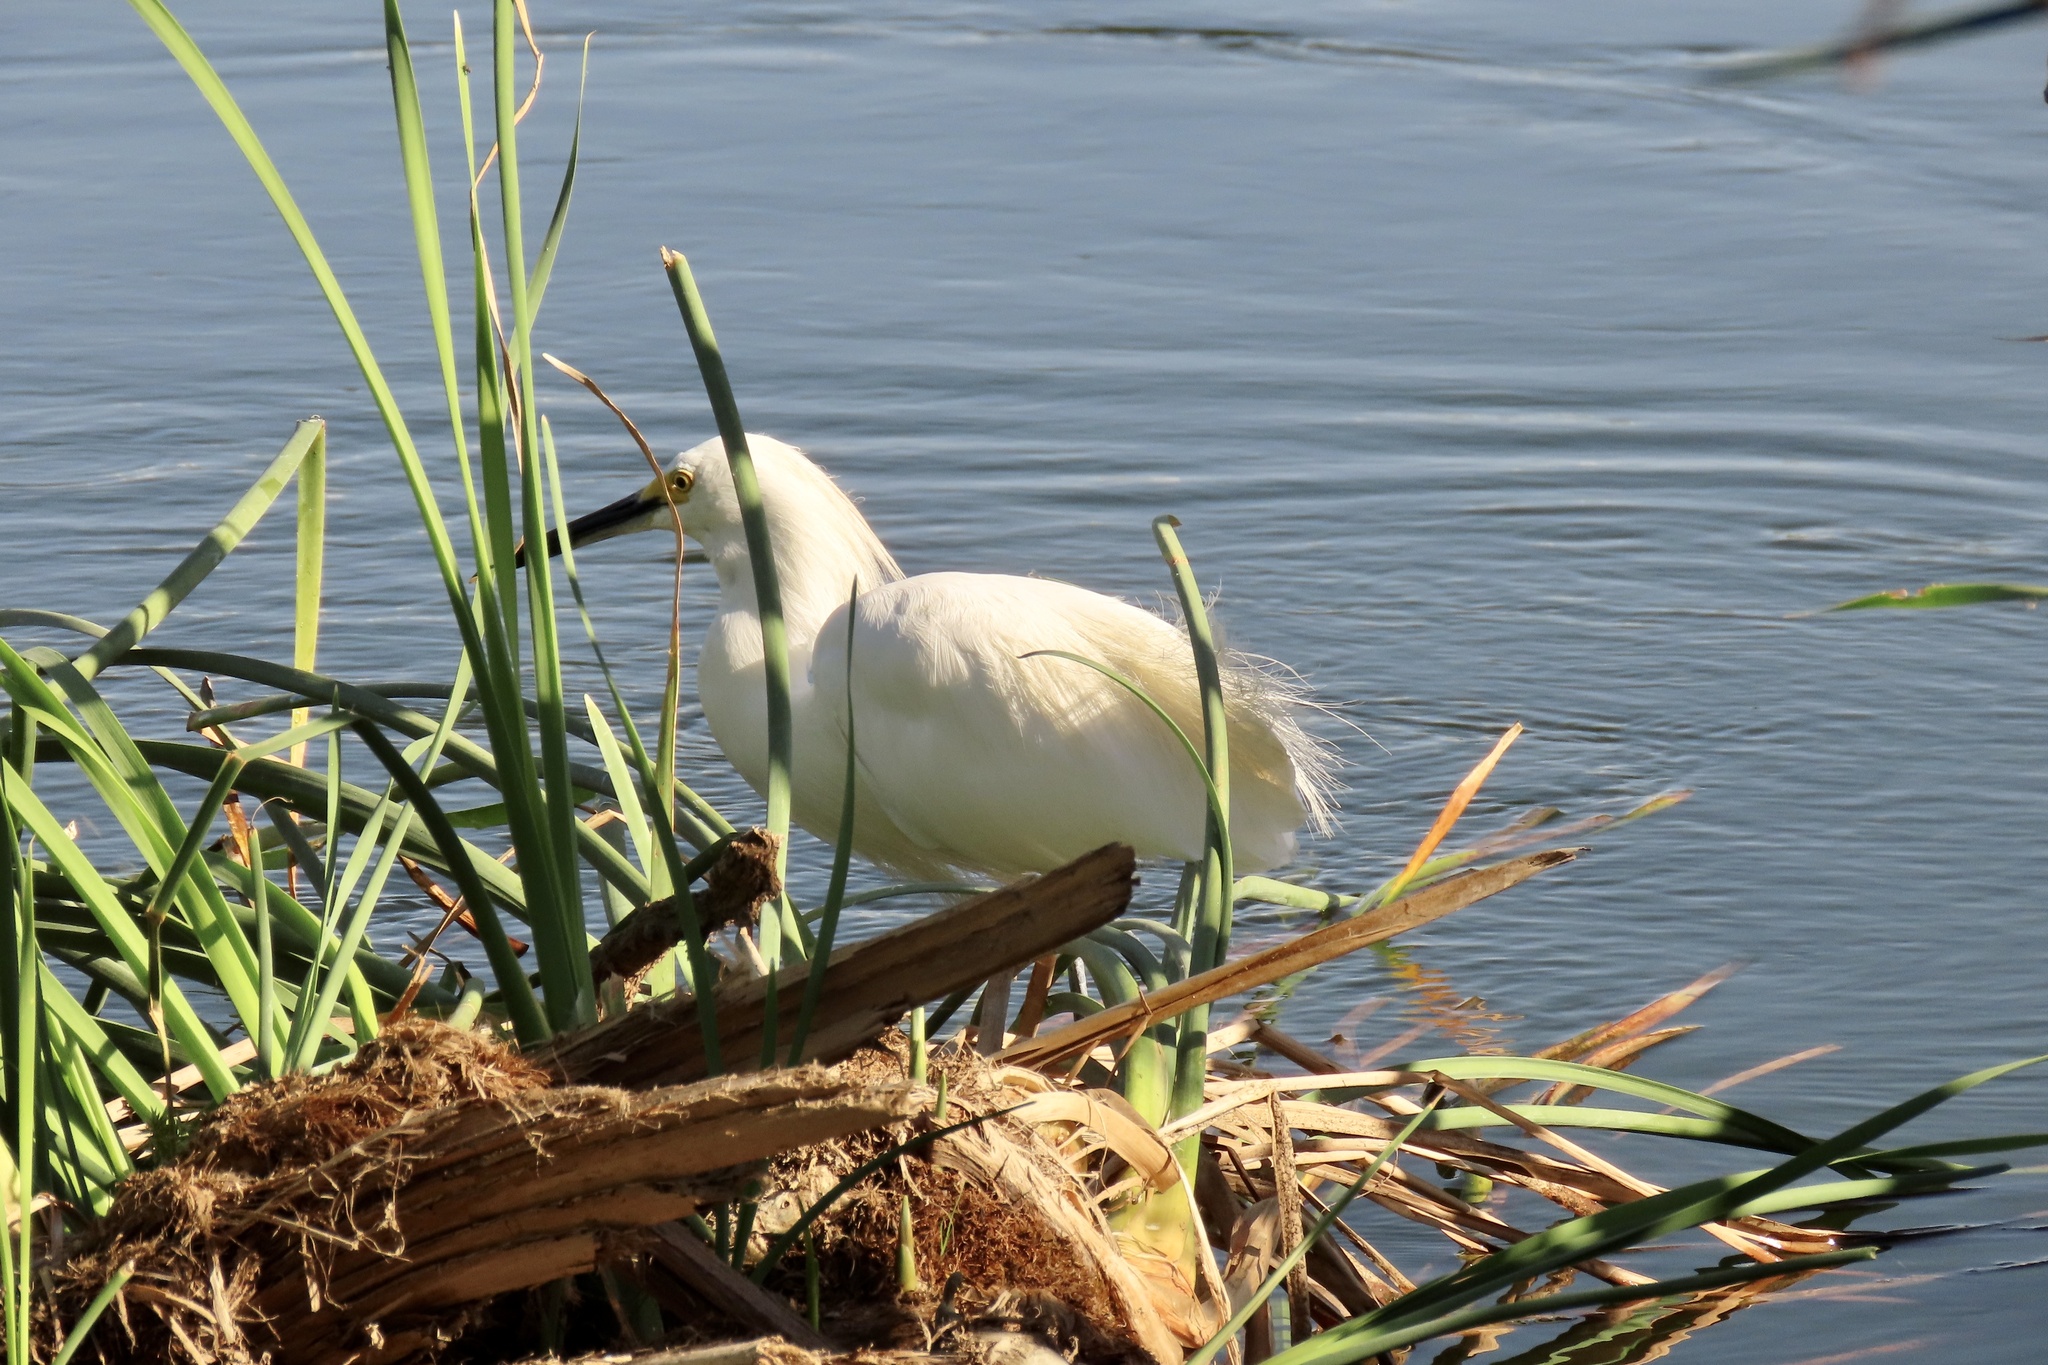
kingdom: Animalia
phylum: Chordata
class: Aves
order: Pelecaniformes
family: Ardeidae
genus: Egretta
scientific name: Egretta thula
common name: Snowy egret
